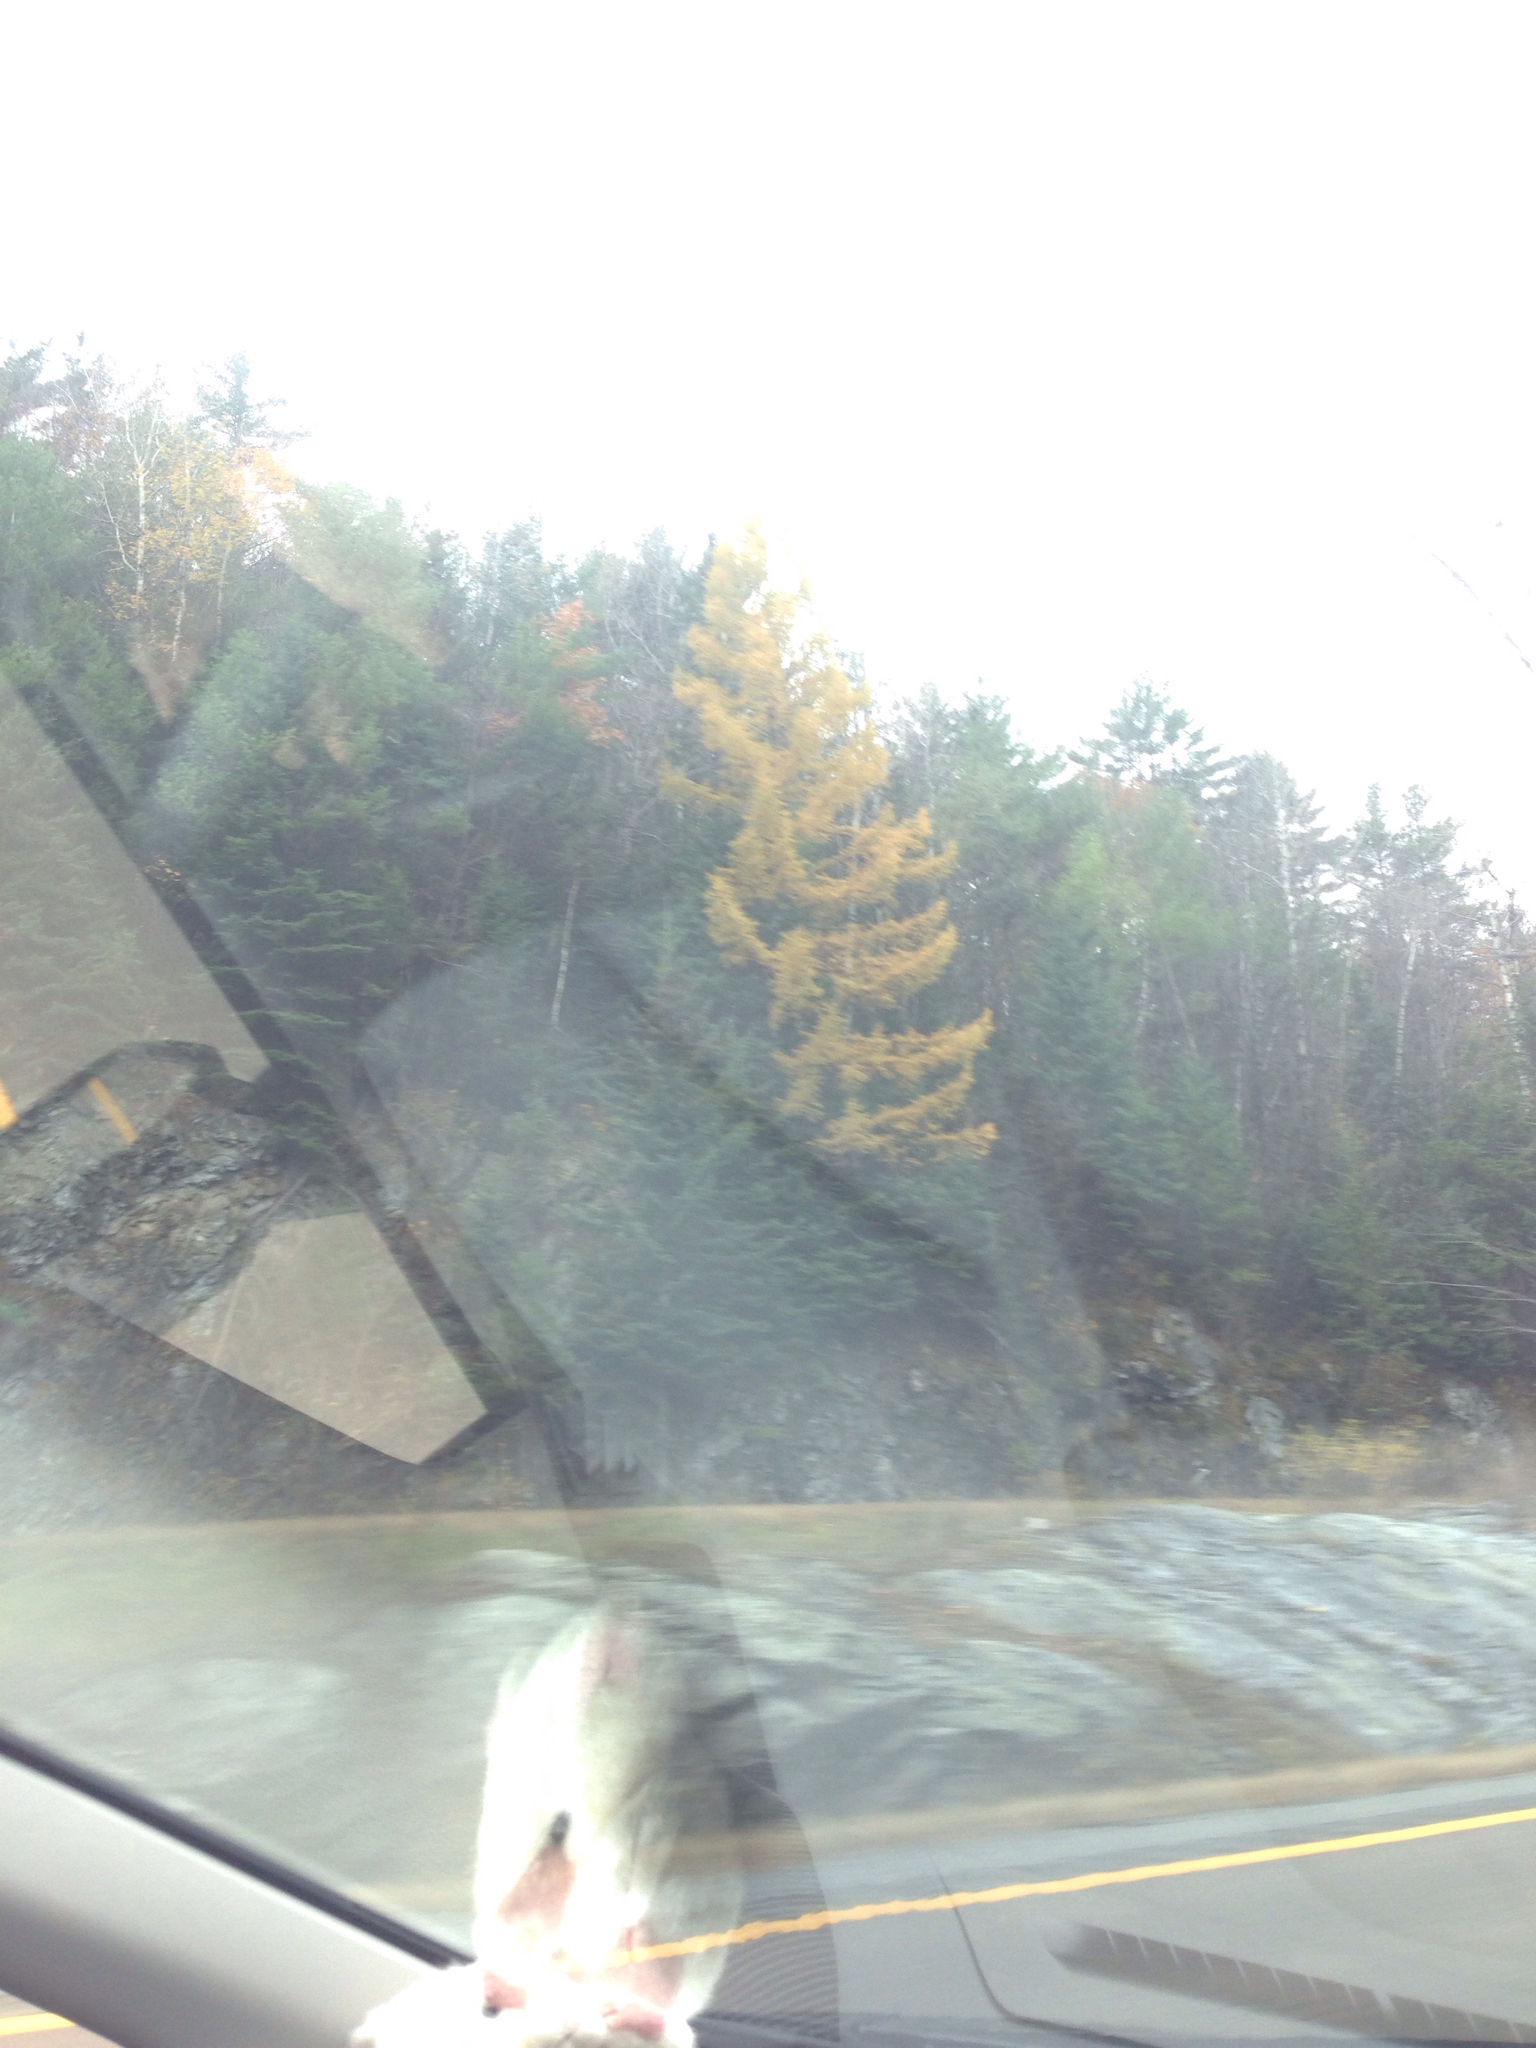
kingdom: Plantae
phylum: Tracheophyta
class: Pinopsida
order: Pinales
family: Pinaceae
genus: Larix
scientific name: Larix laricina
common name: American larch
